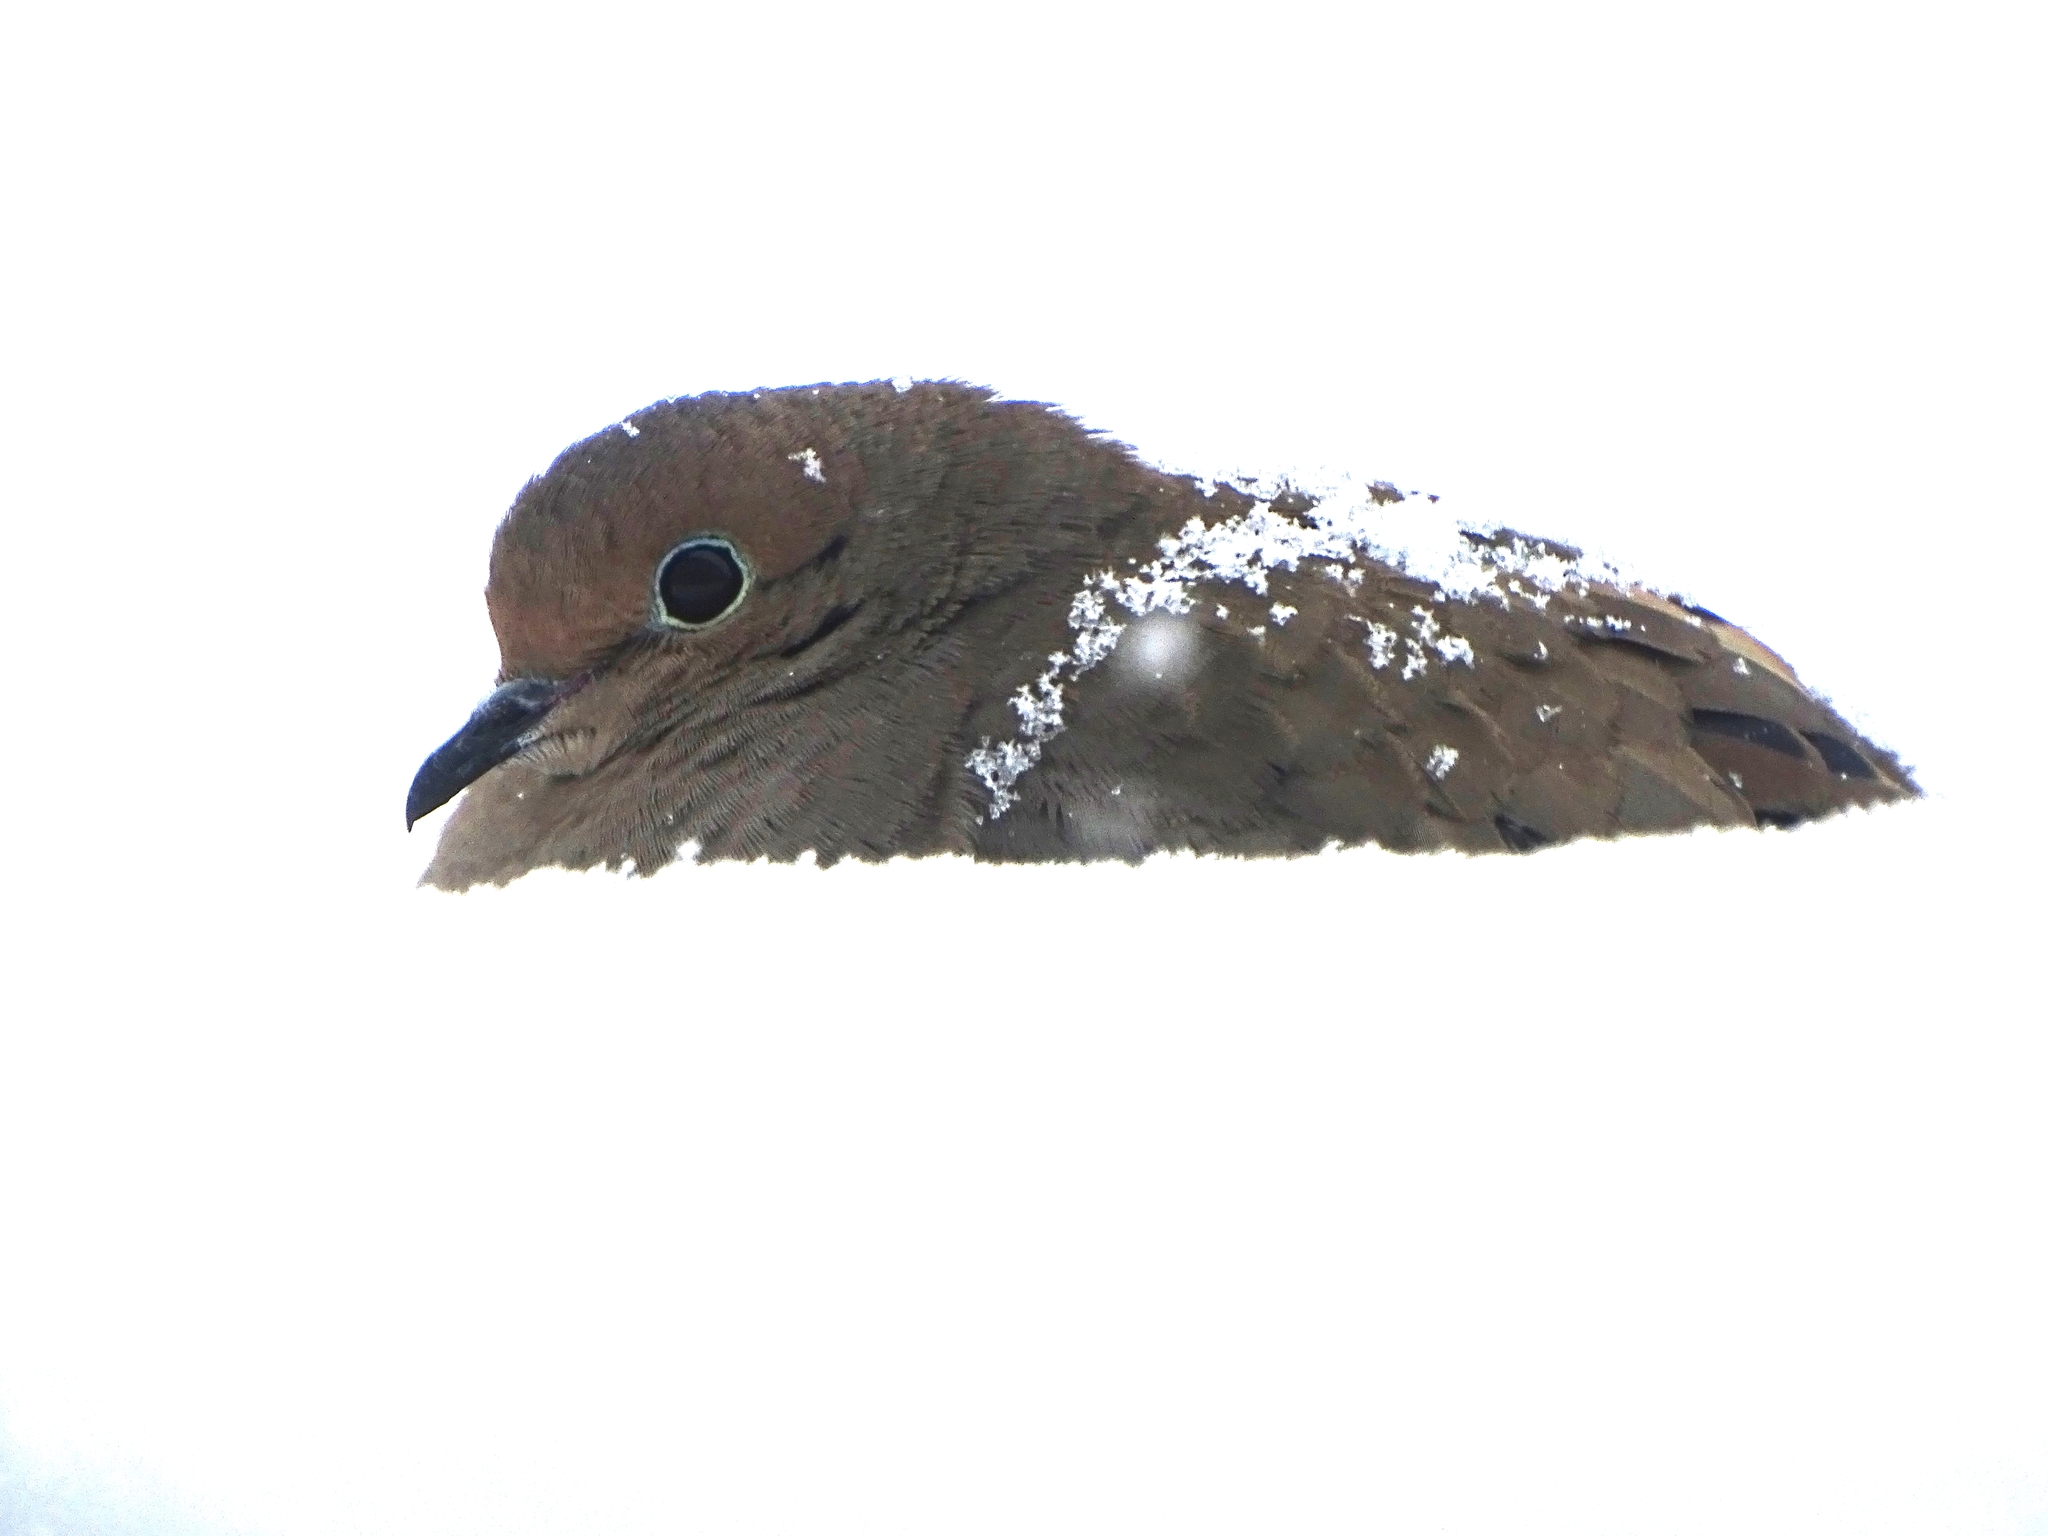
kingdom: Animalia
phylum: Chordata
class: Aves
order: Columbiformes
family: Columbidae
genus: Zenaida
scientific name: Zenaida macroura
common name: Mourning dove
